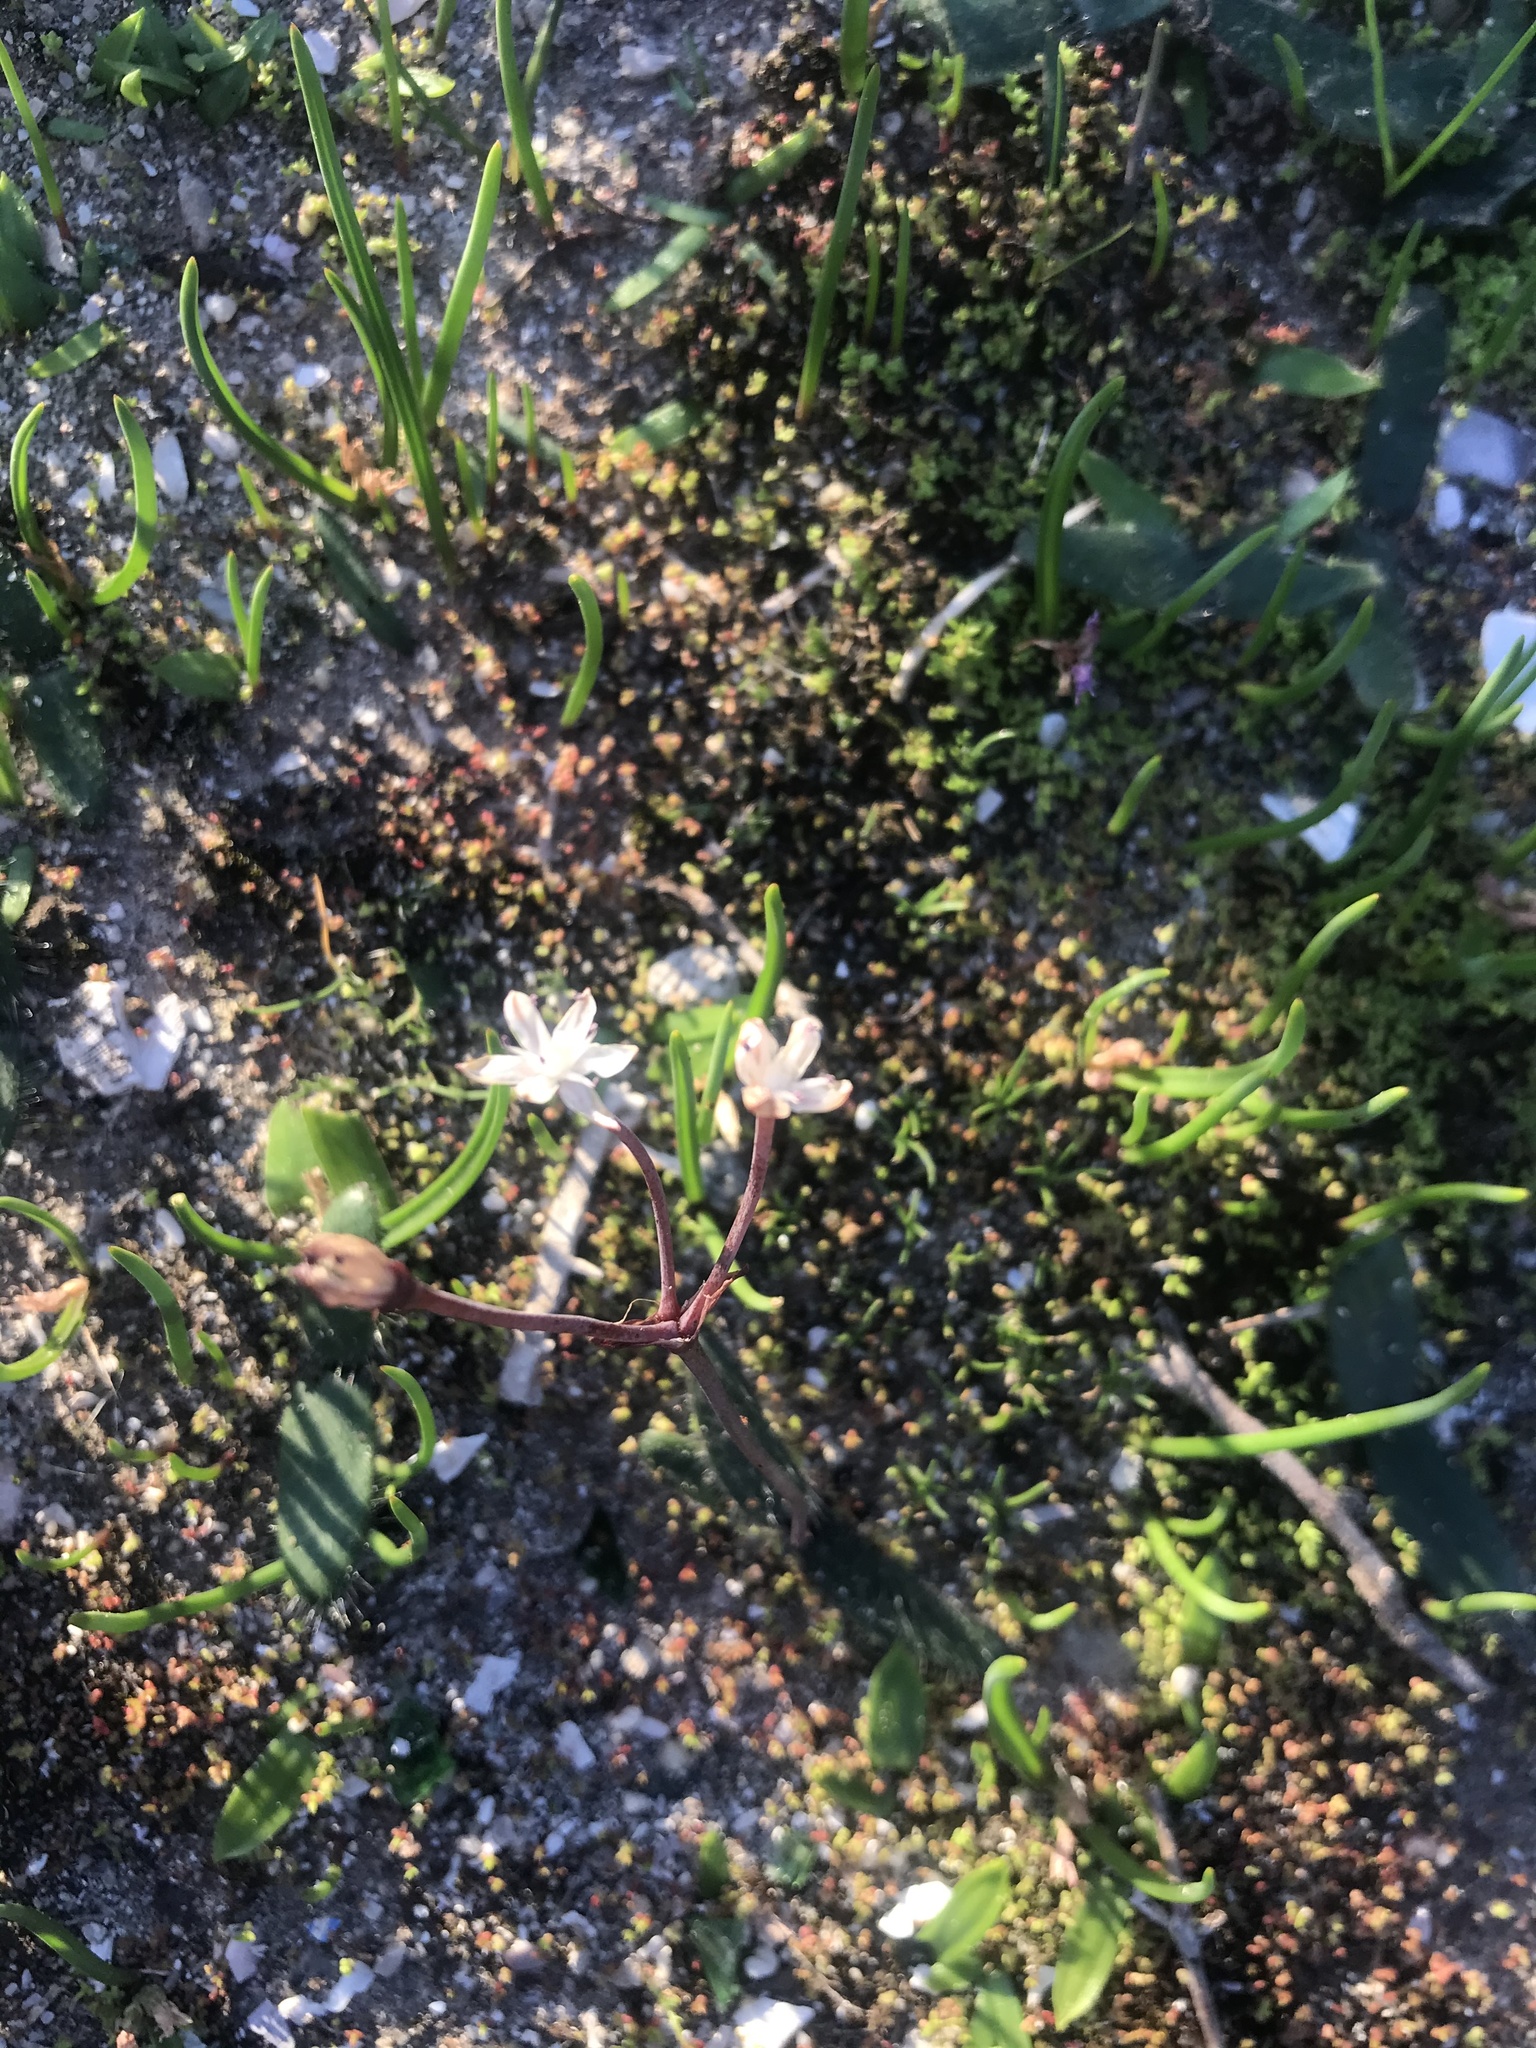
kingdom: Plantae
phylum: Tracheophyta
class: Liliopsida
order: Asparagales
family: Amaryllidaceae
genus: Strumaria
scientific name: Strumaria chaplinii
